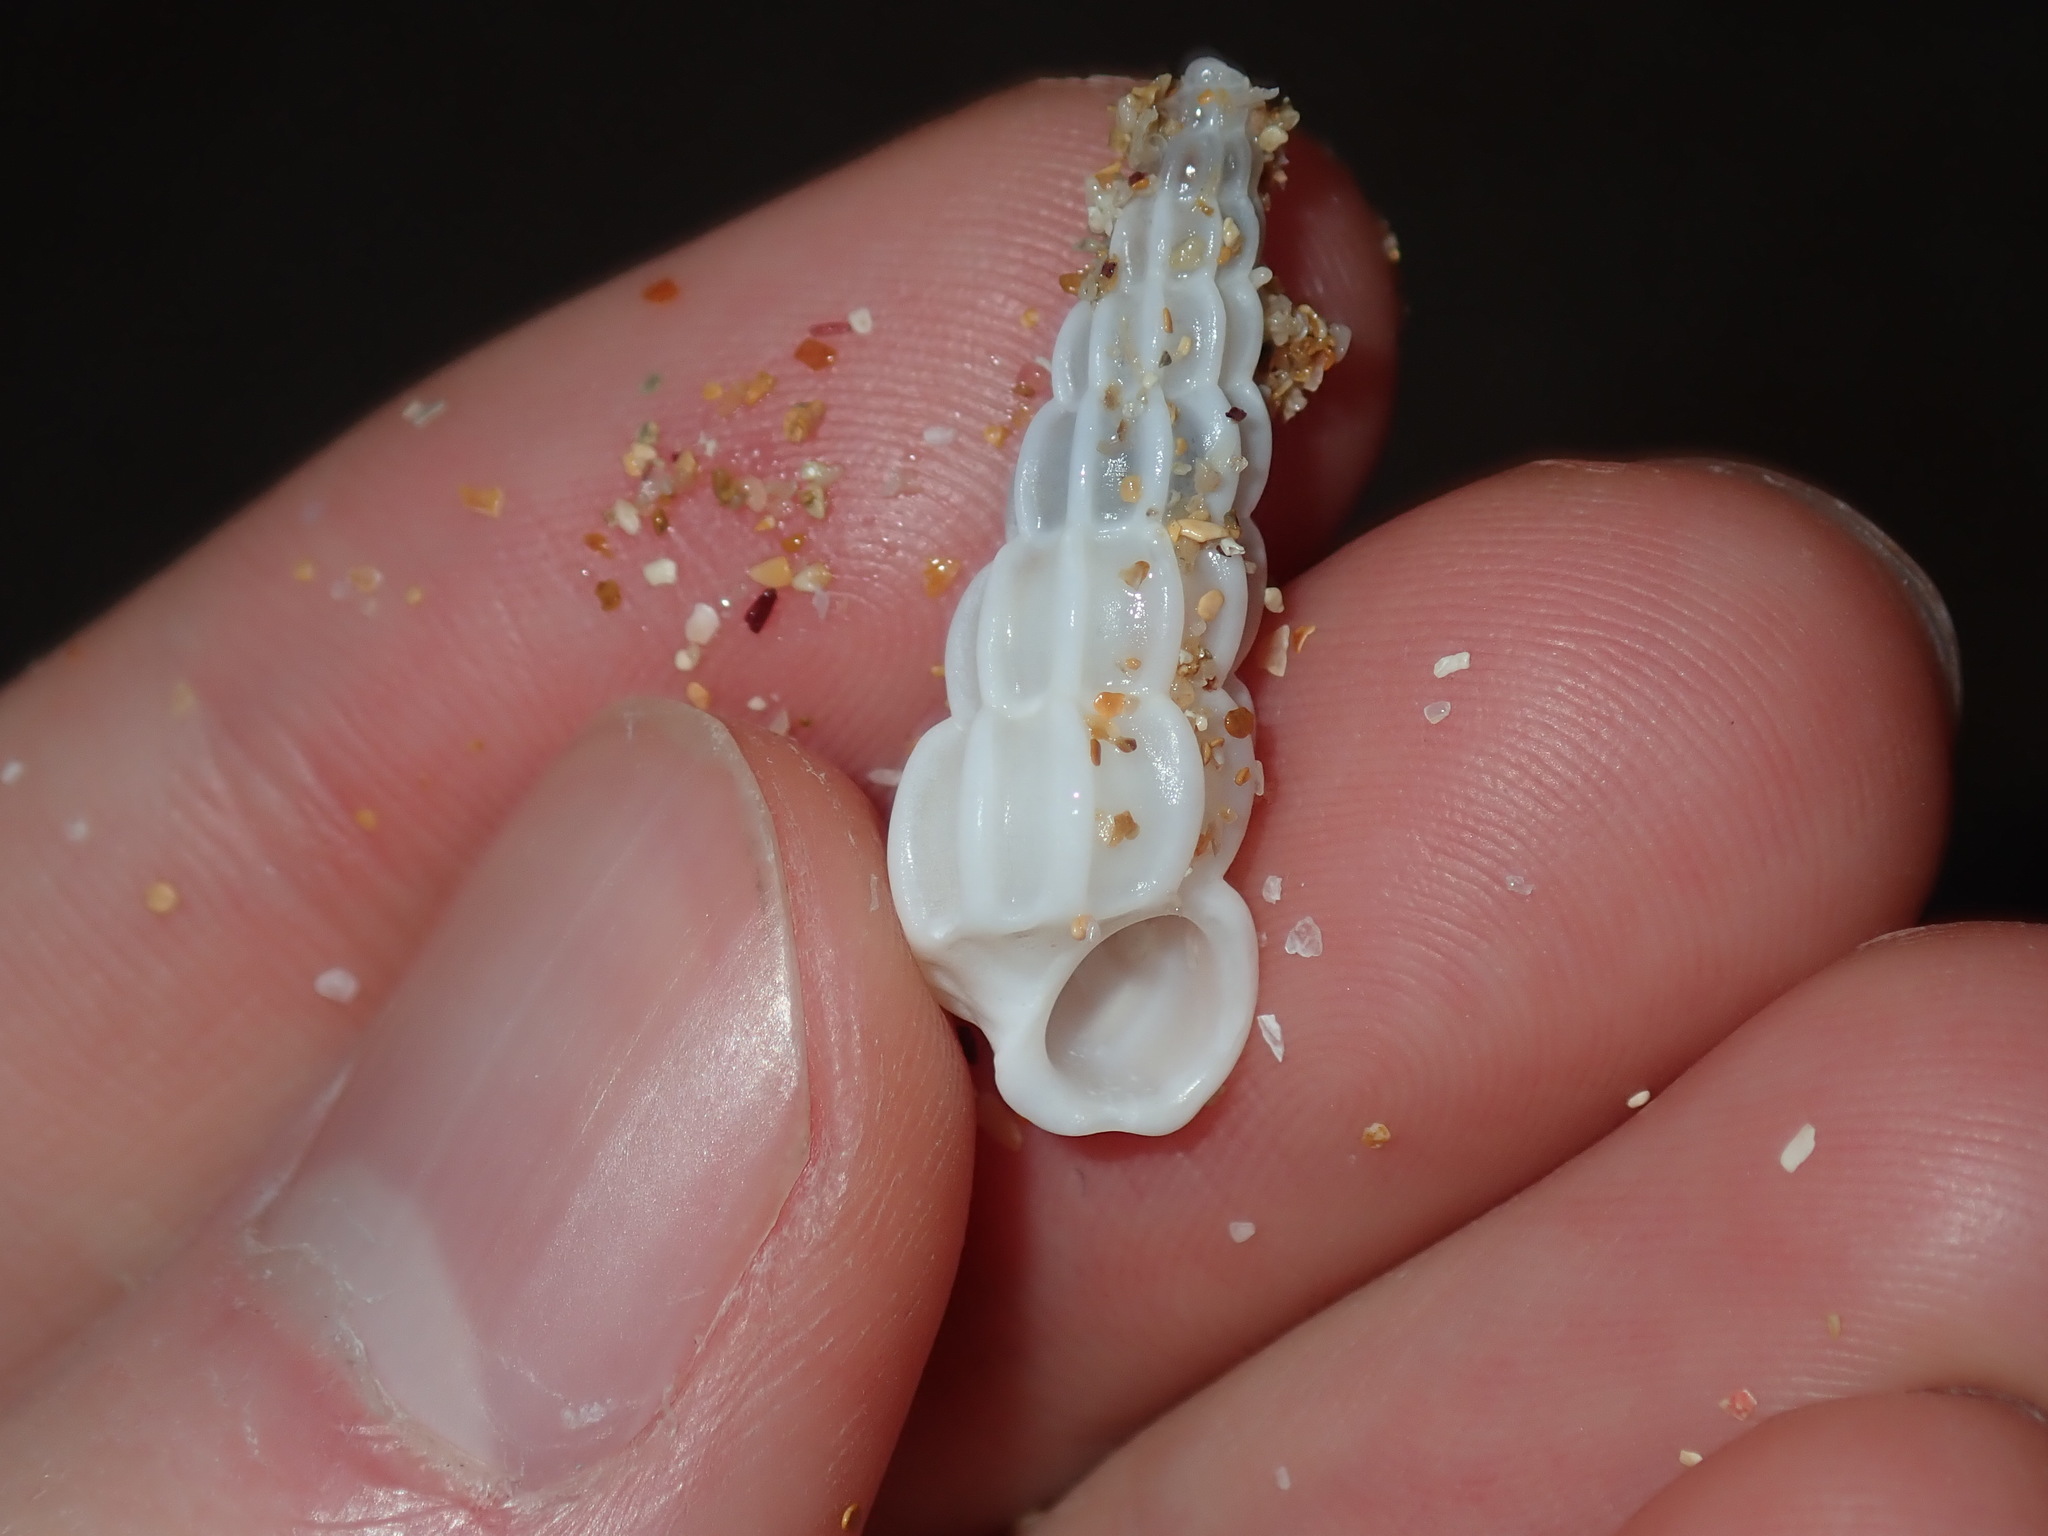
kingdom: Animalia
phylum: Mollusca
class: Gastropoda
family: Epitoniidae
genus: Opalia
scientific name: Opalia australis
